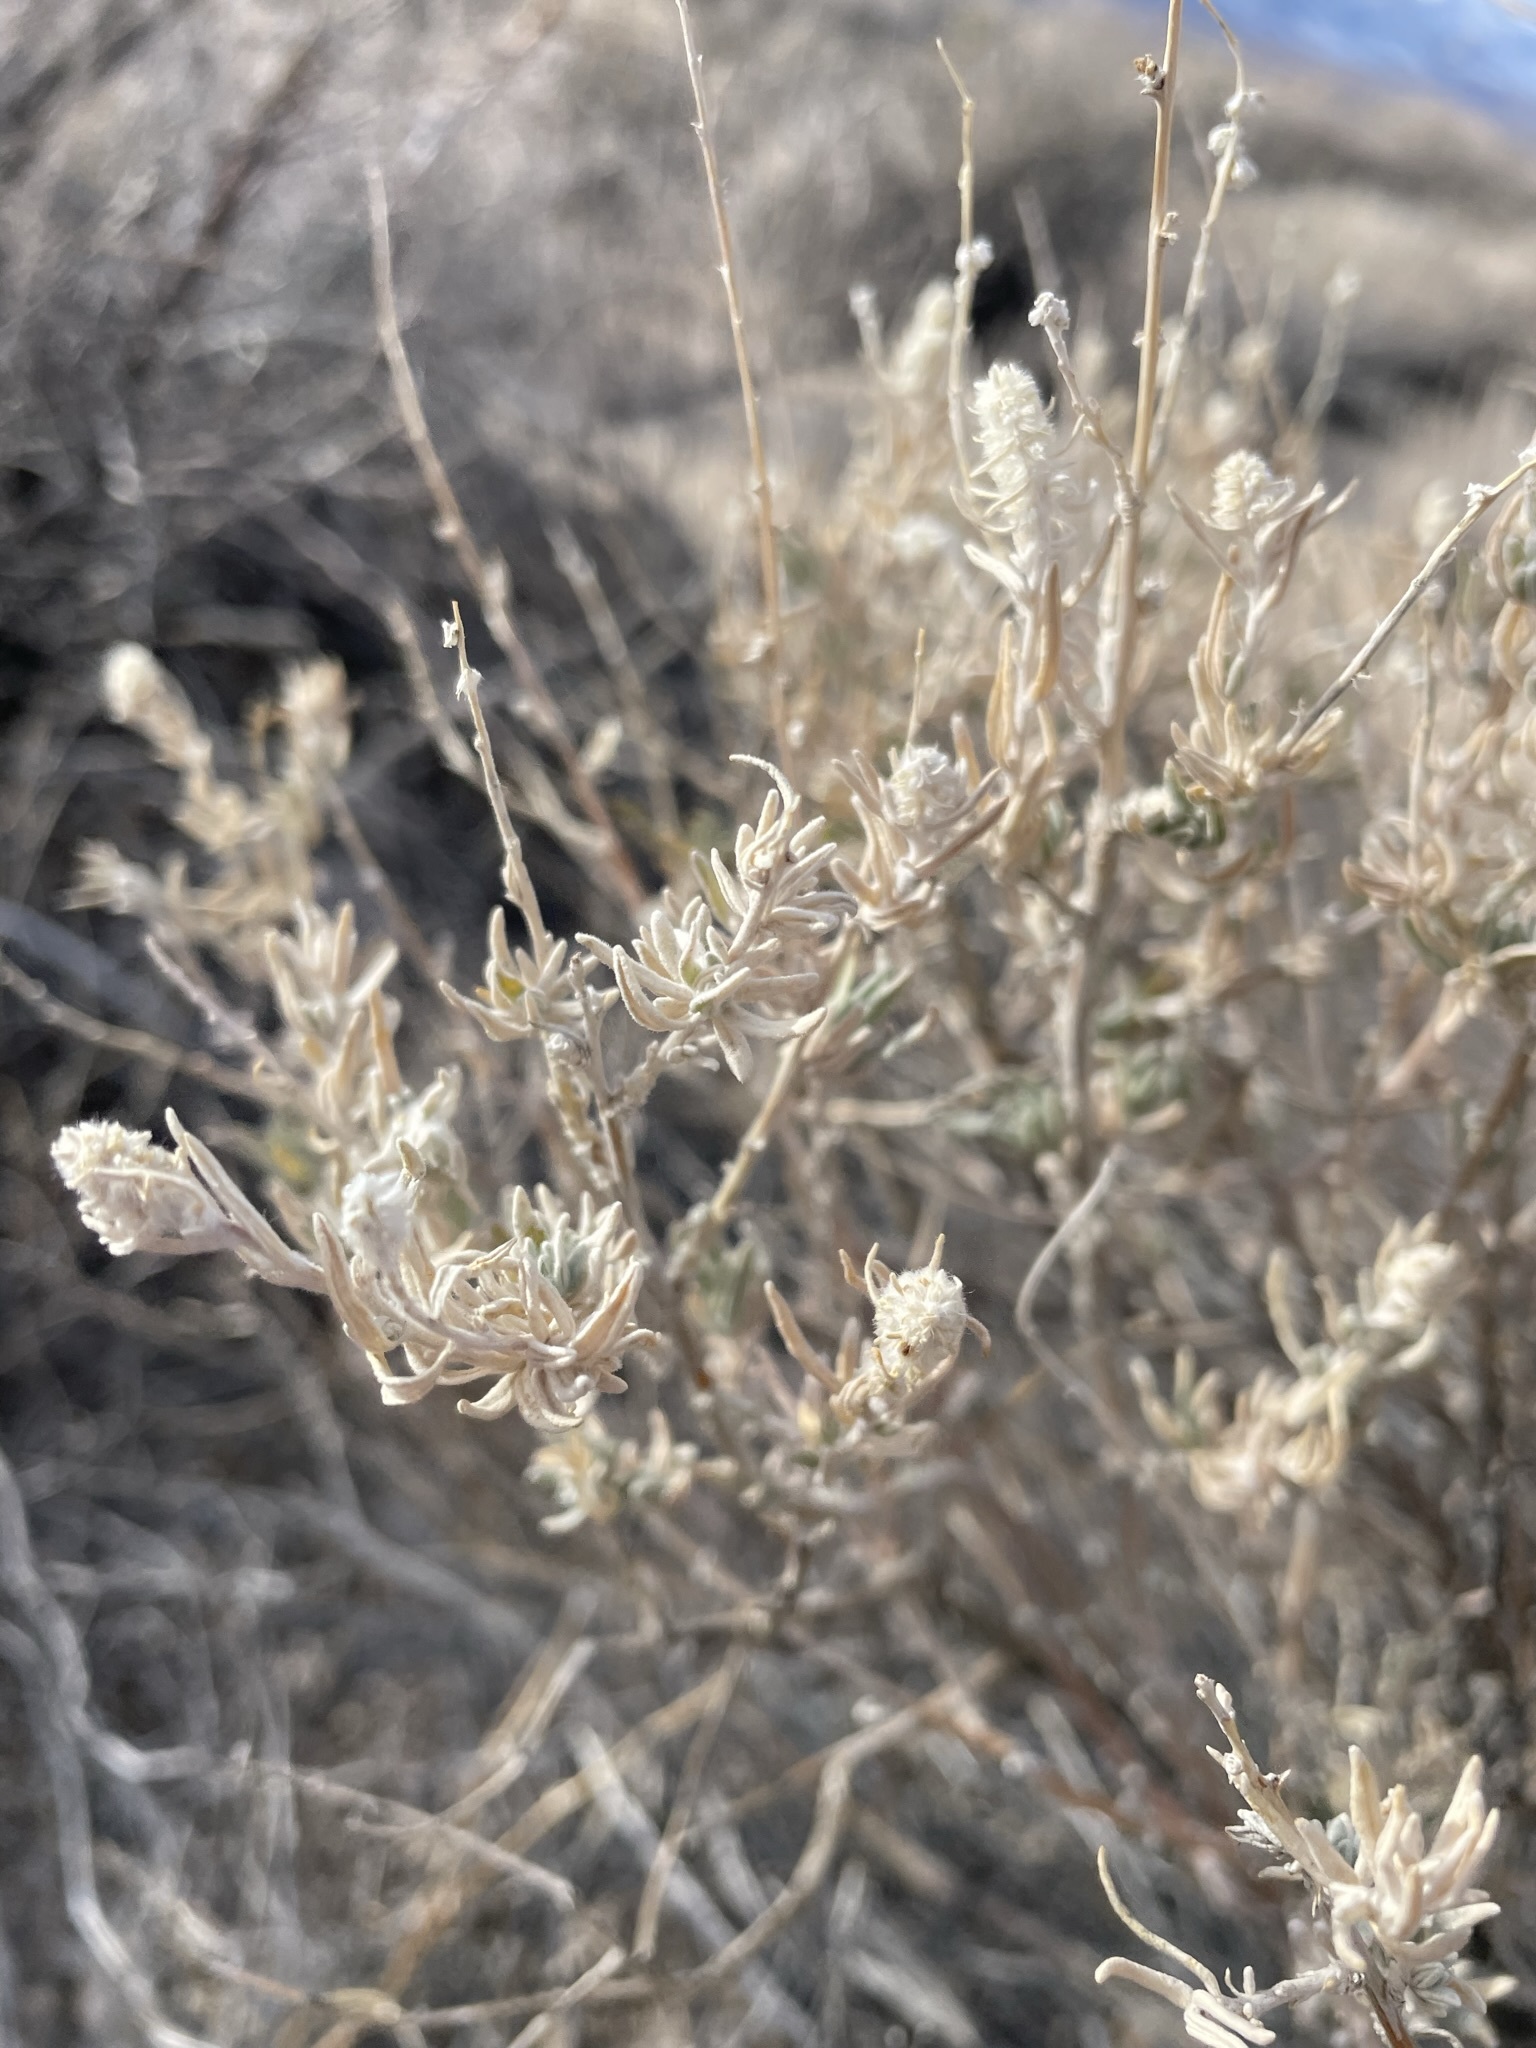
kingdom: Plantae
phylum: Tracheophyta
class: Magnoliopsida
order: Caryophyllales
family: Amaranthaceae
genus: Krascheninnikovia
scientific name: Krascheninnikovia lanata
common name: Winterfat
